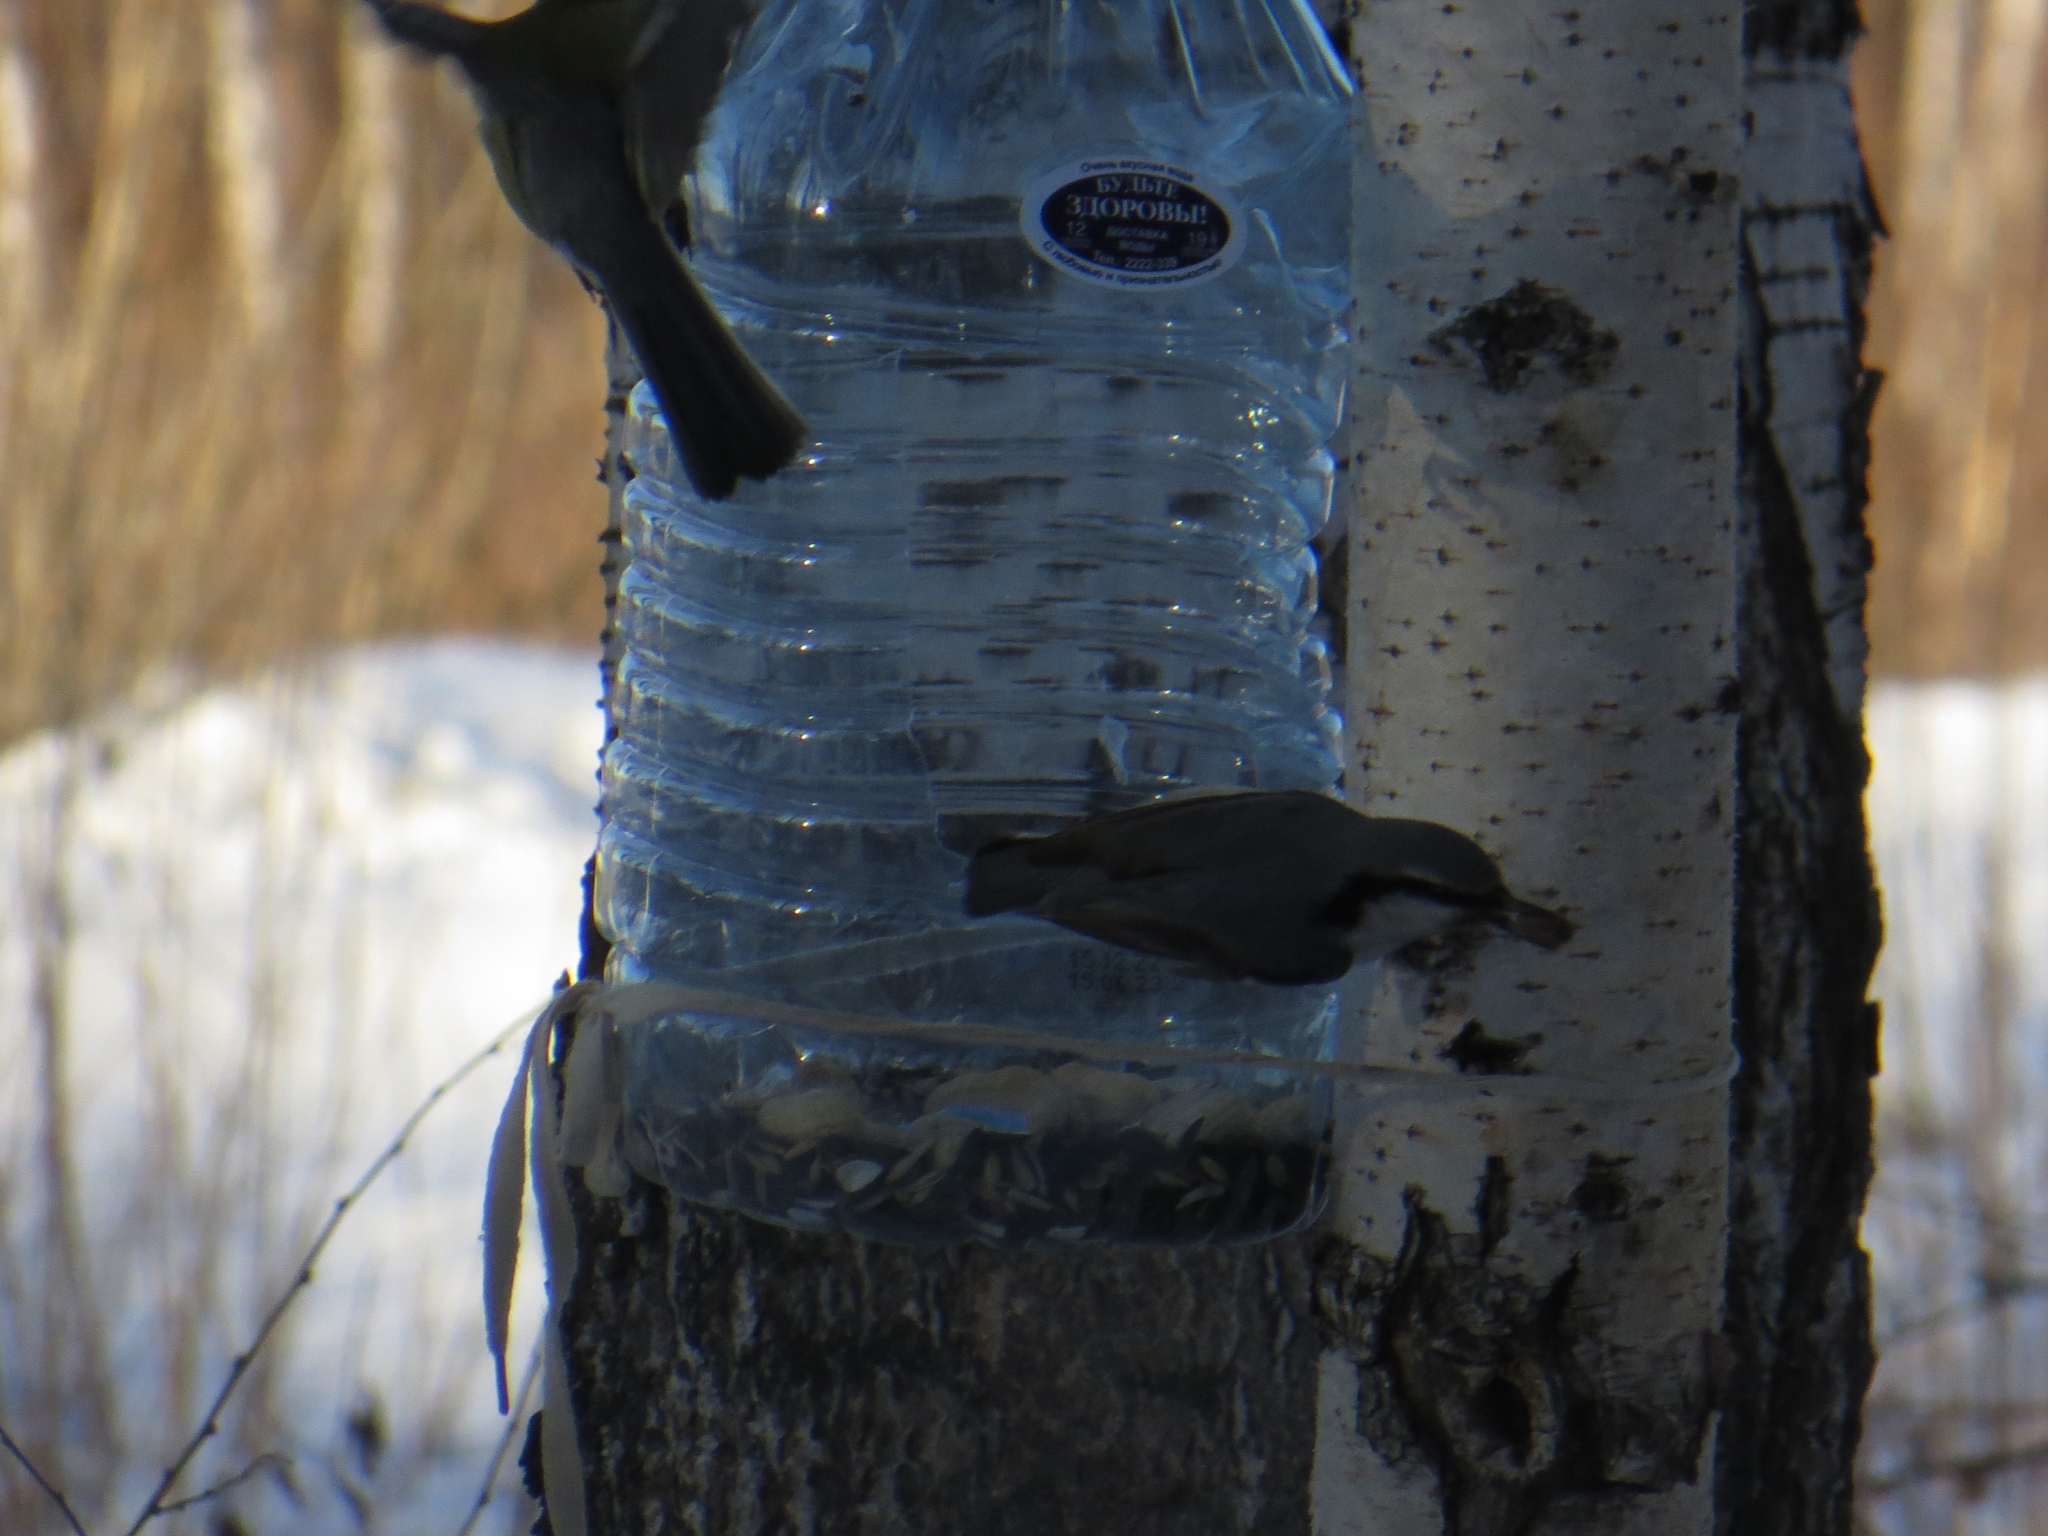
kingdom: Animalia
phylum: Chordata
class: Aves
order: Passeriformes
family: Sittidae
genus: Sitta
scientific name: Sitta europaea
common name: Eurasian nuthatch
